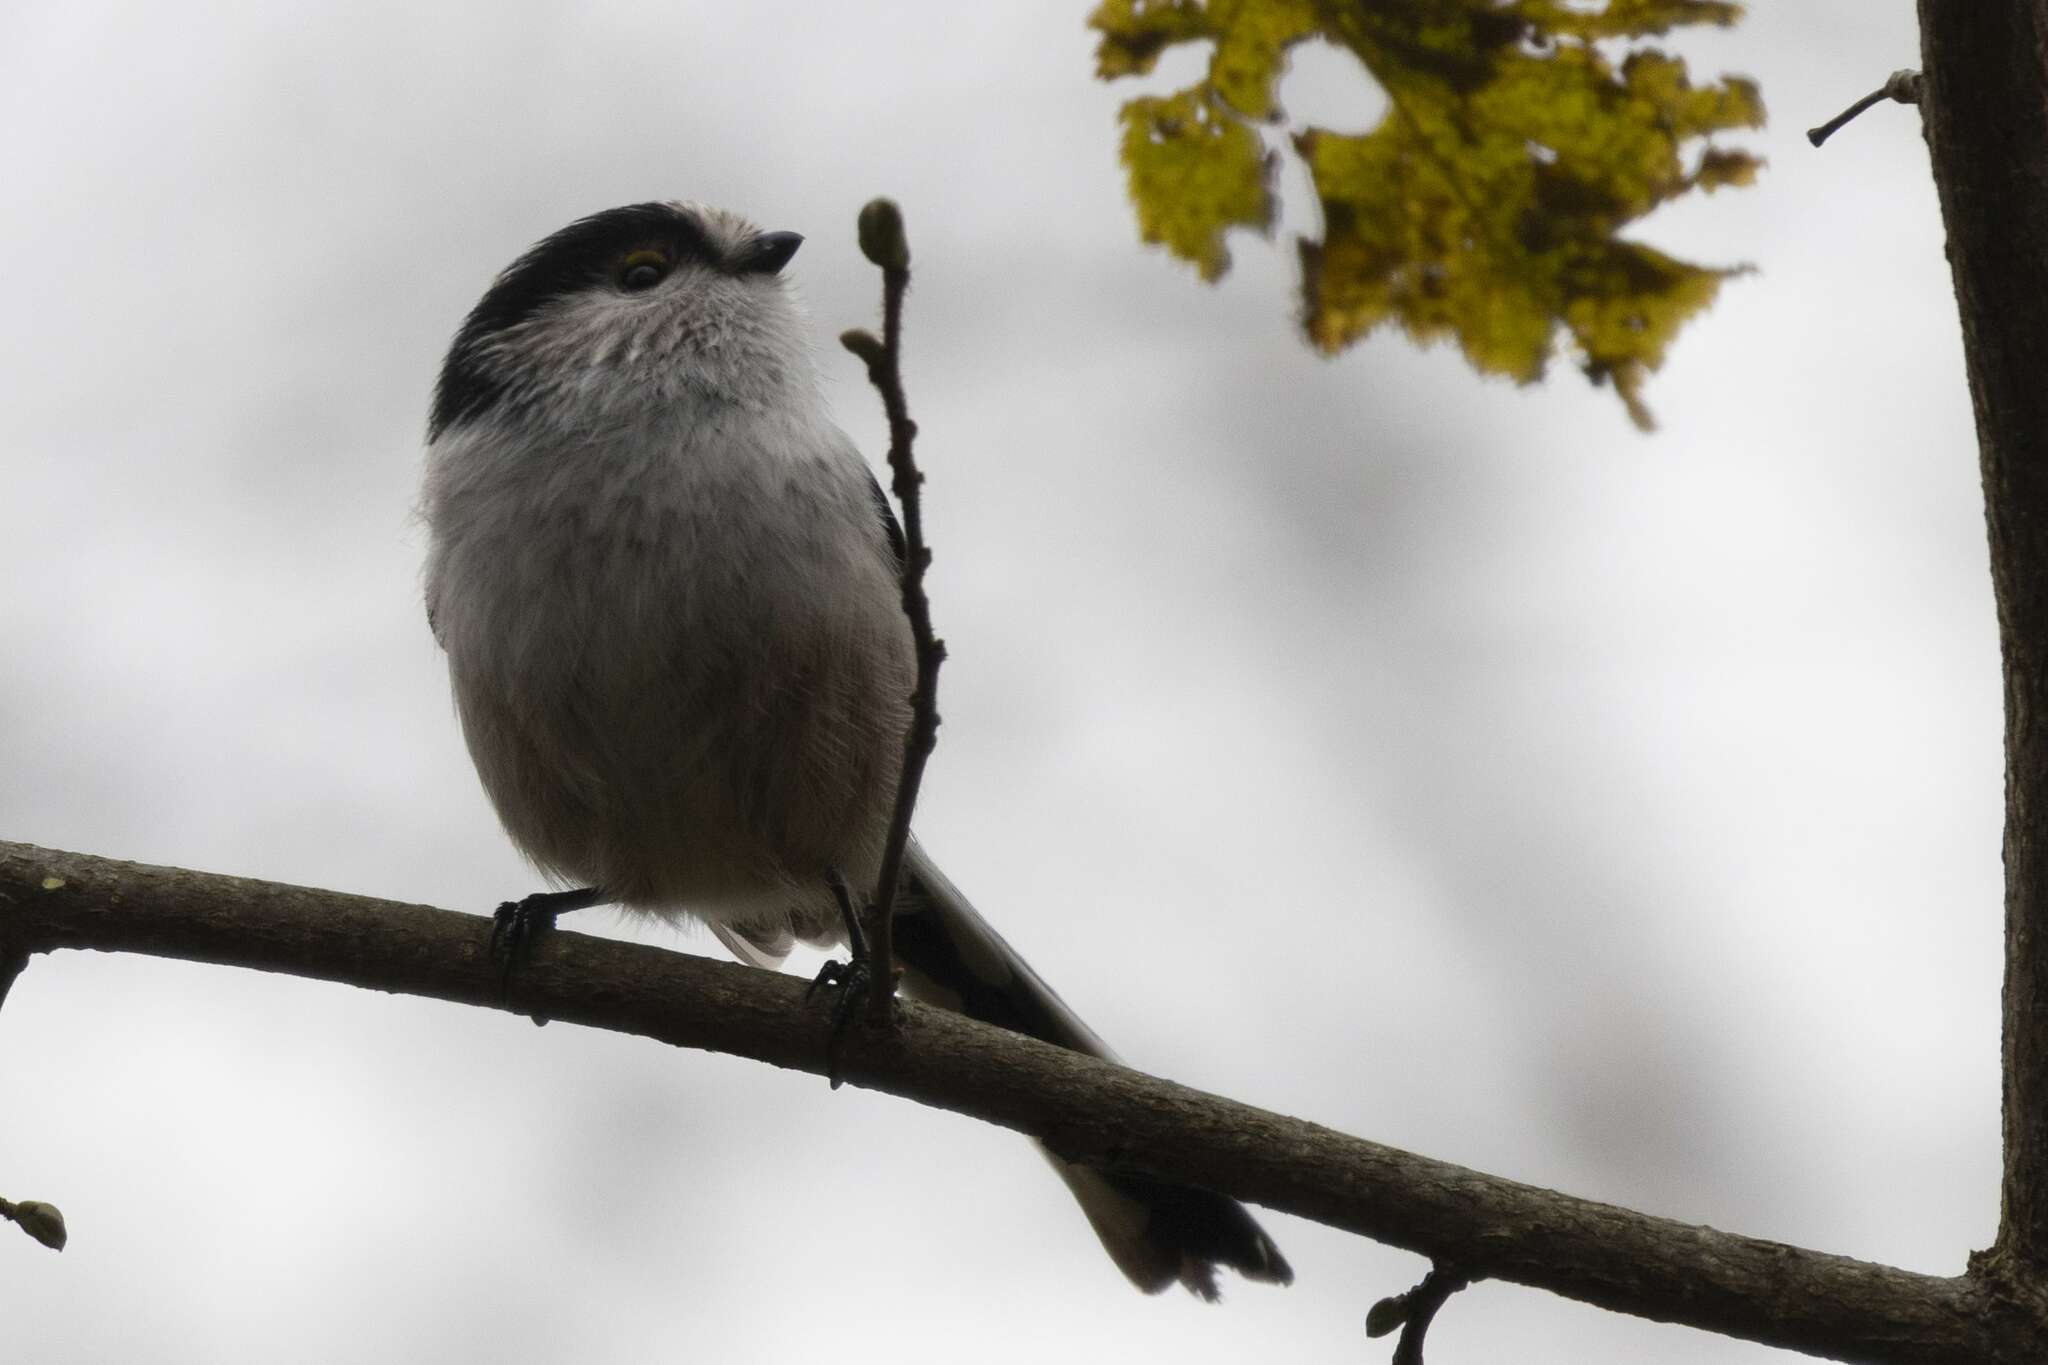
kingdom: Animalia
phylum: Chordata
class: Aves
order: Passeriformes
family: Aegithalidae
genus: Aegithalos
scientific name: Aegithalos caudatus
